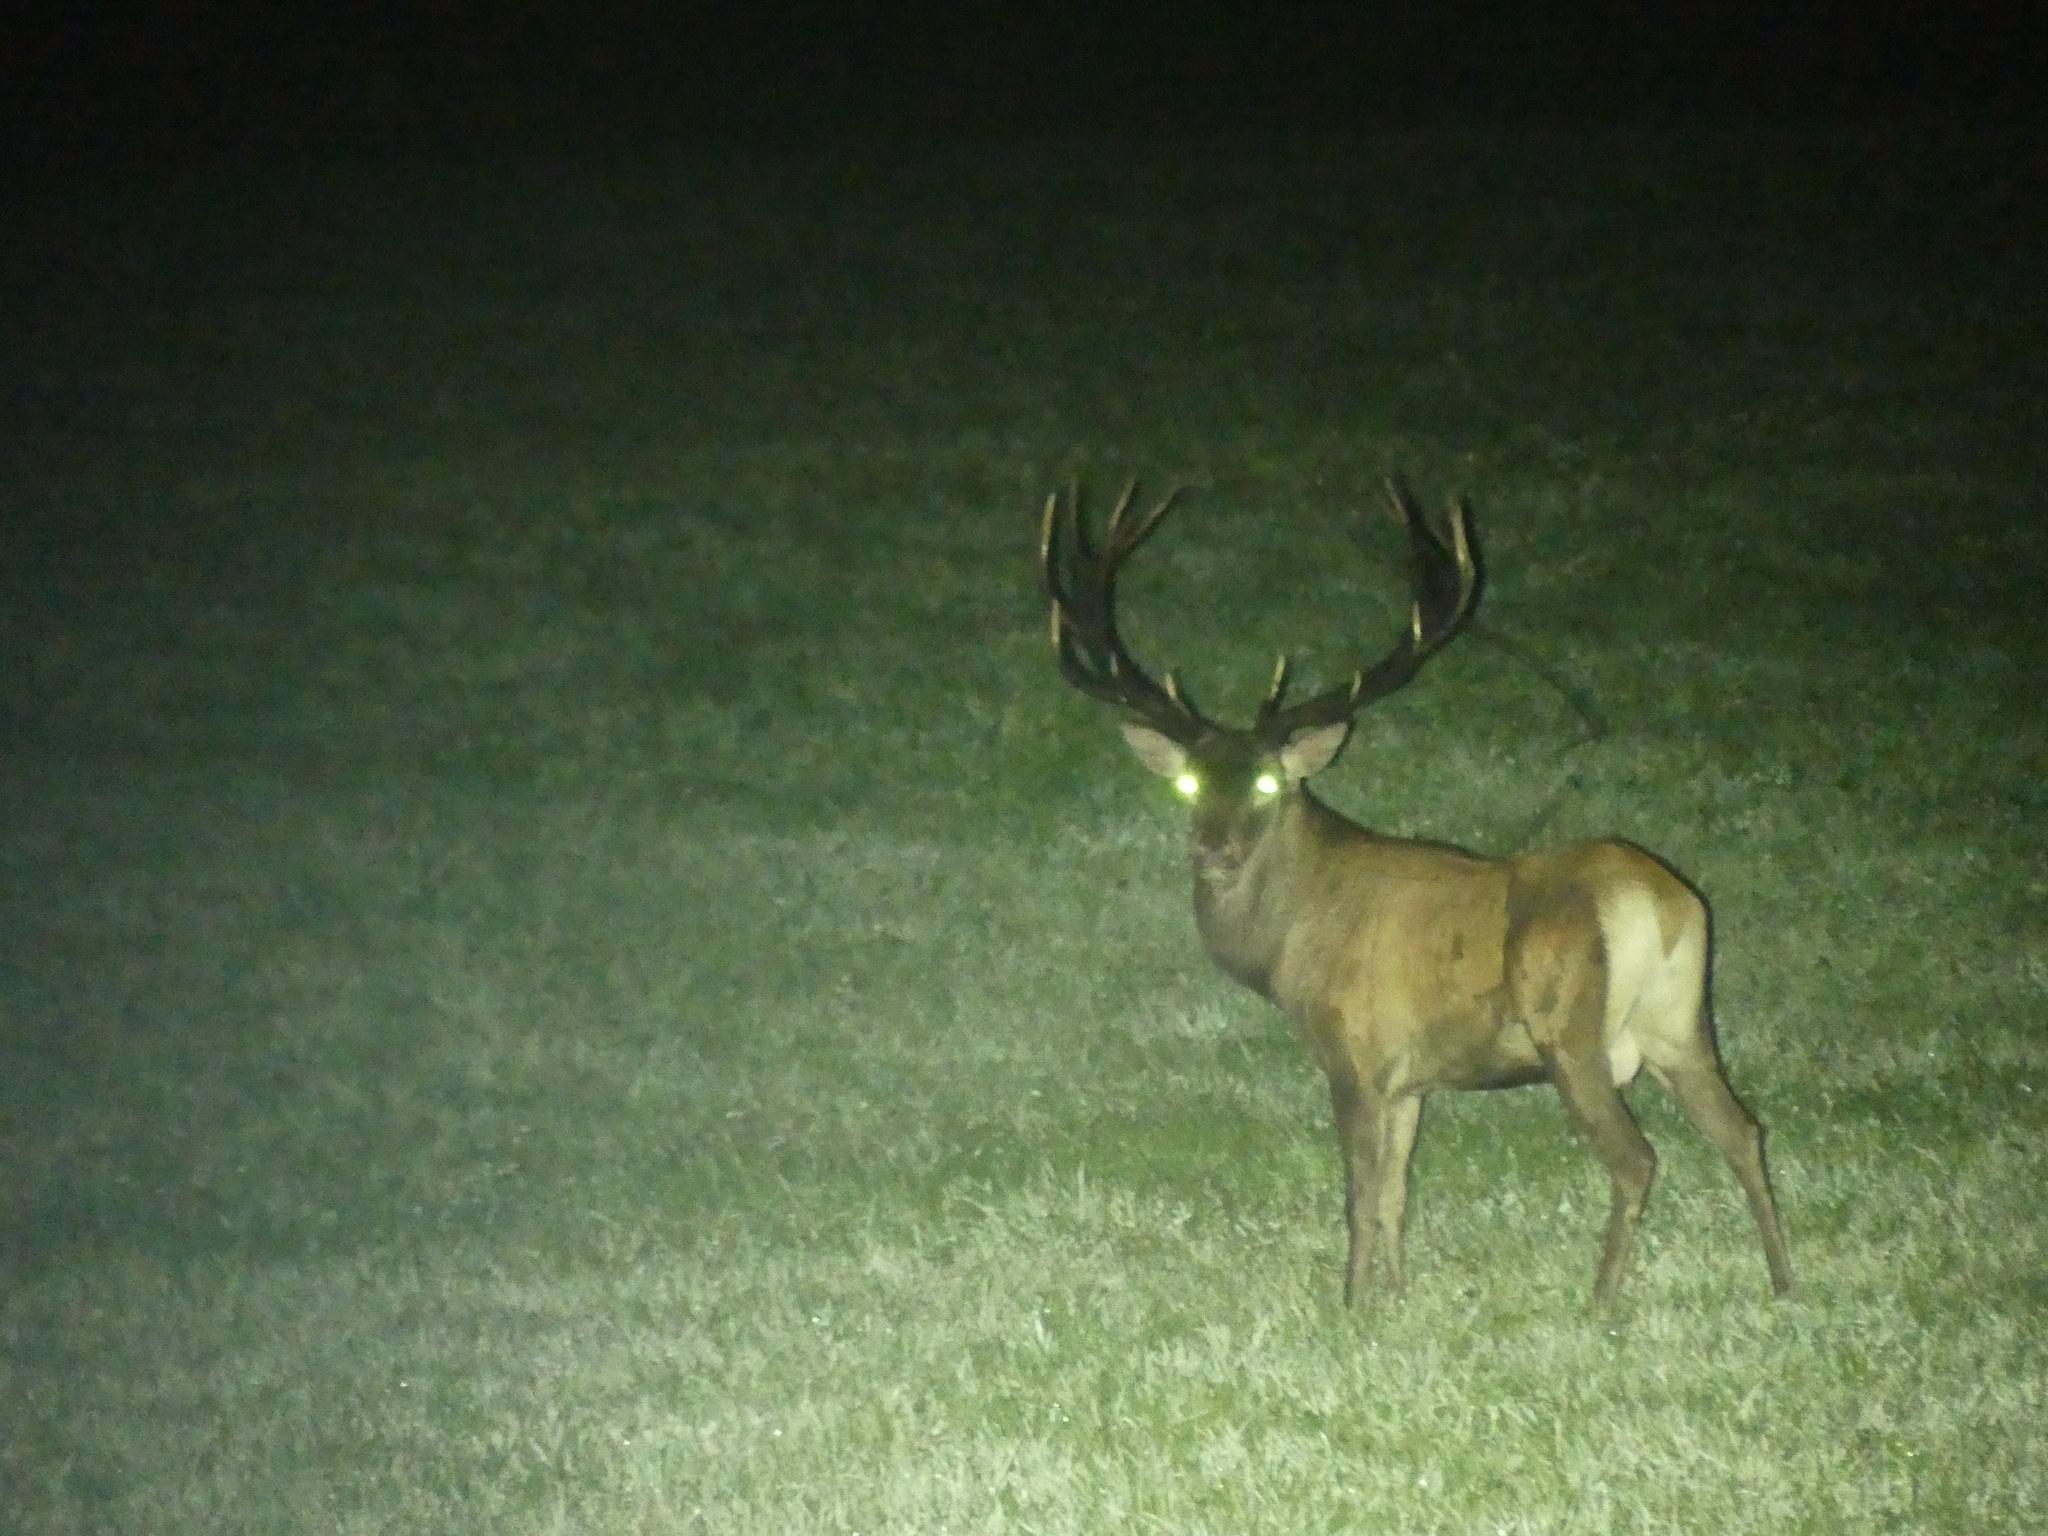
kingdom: Animalia
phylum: Chordata
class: Mammalia
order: Artiodactyla
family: Cervidae
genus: Cervus
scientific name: Cervus elaphus
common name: Red deer
